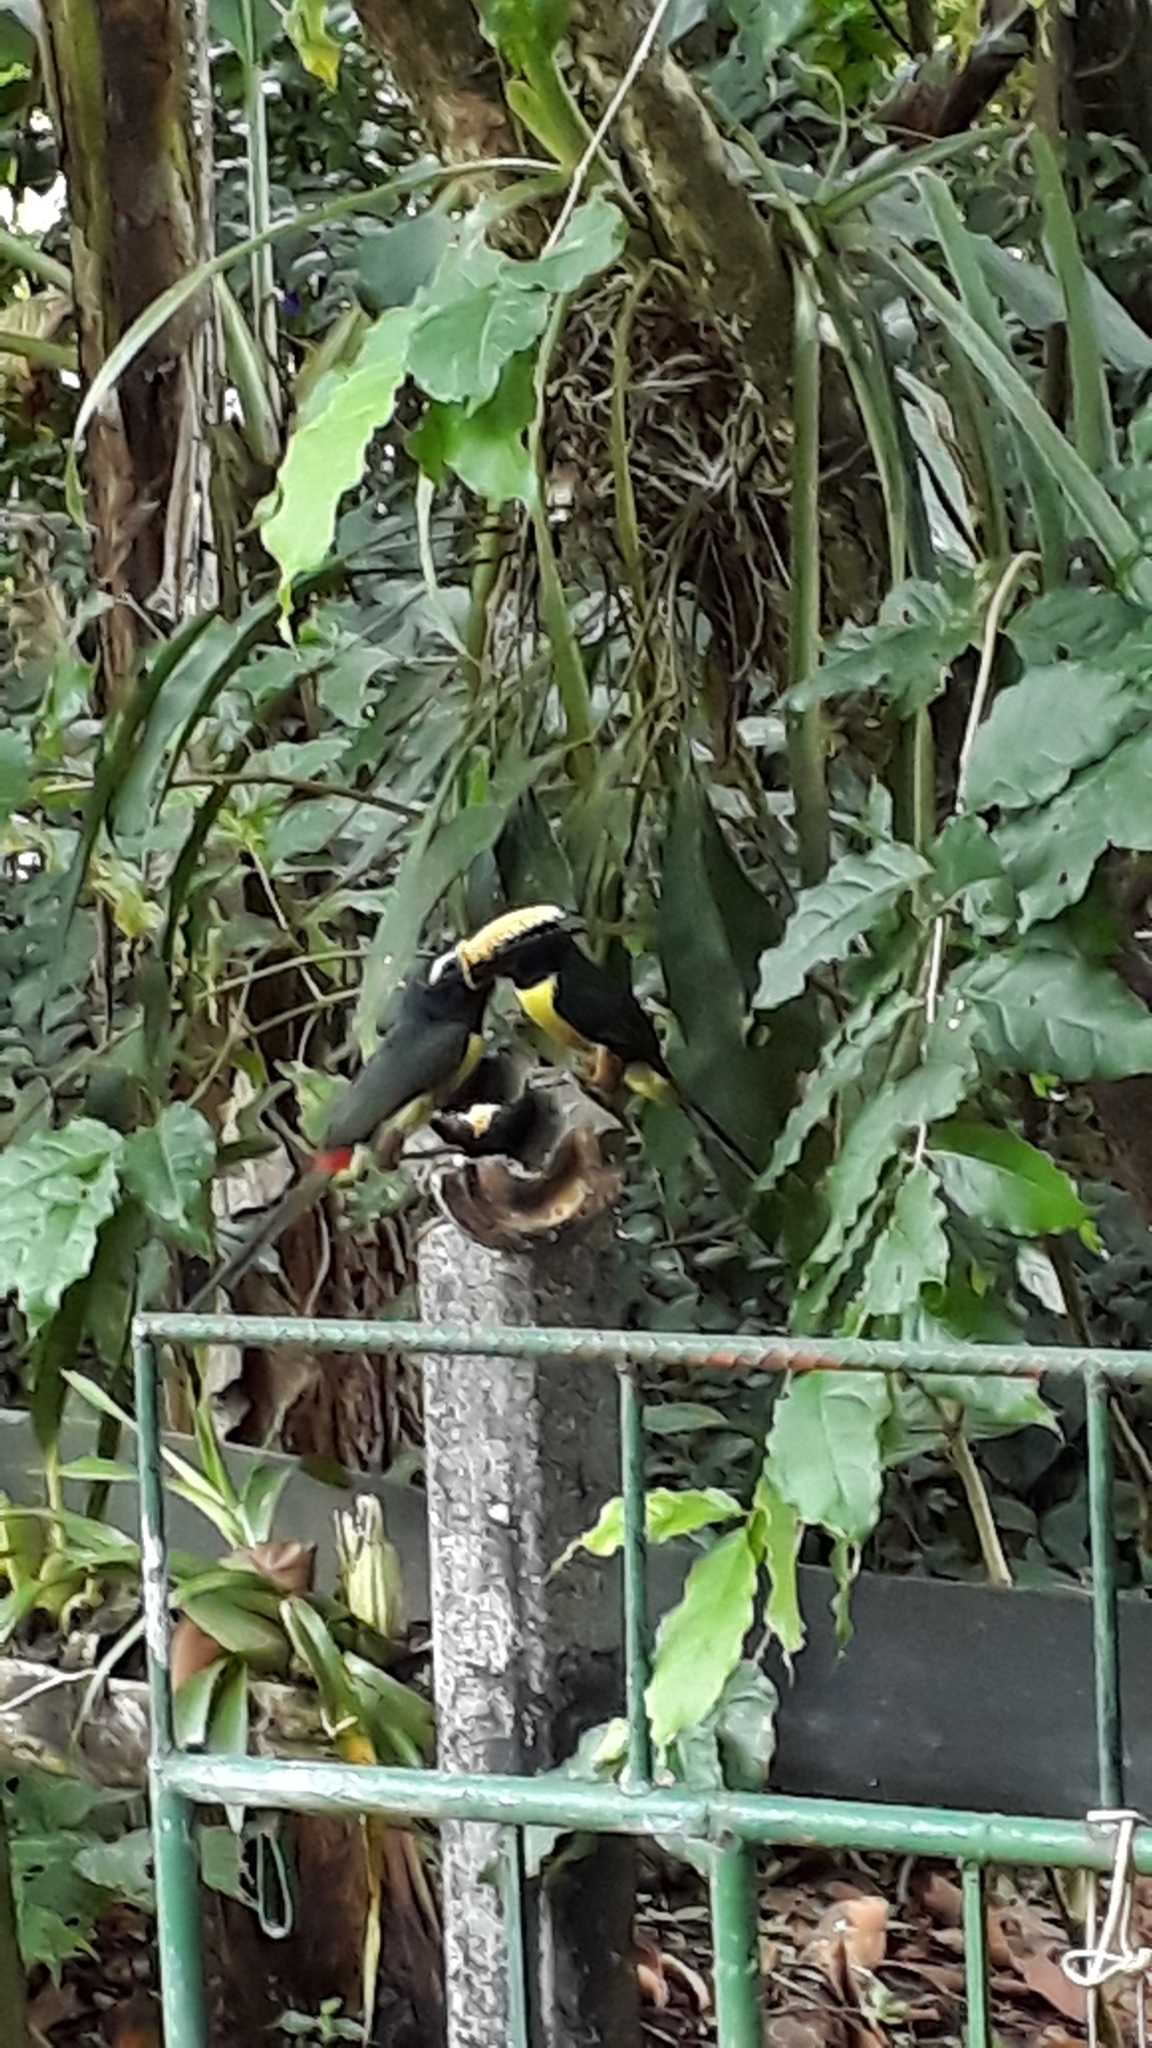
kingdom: Animalia
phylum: Chordata
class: Aves
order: Piciformes
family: Ramphastidae
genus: Pteroglossus
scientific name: Pteroglossus inscriptus
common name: Lettered aracari
